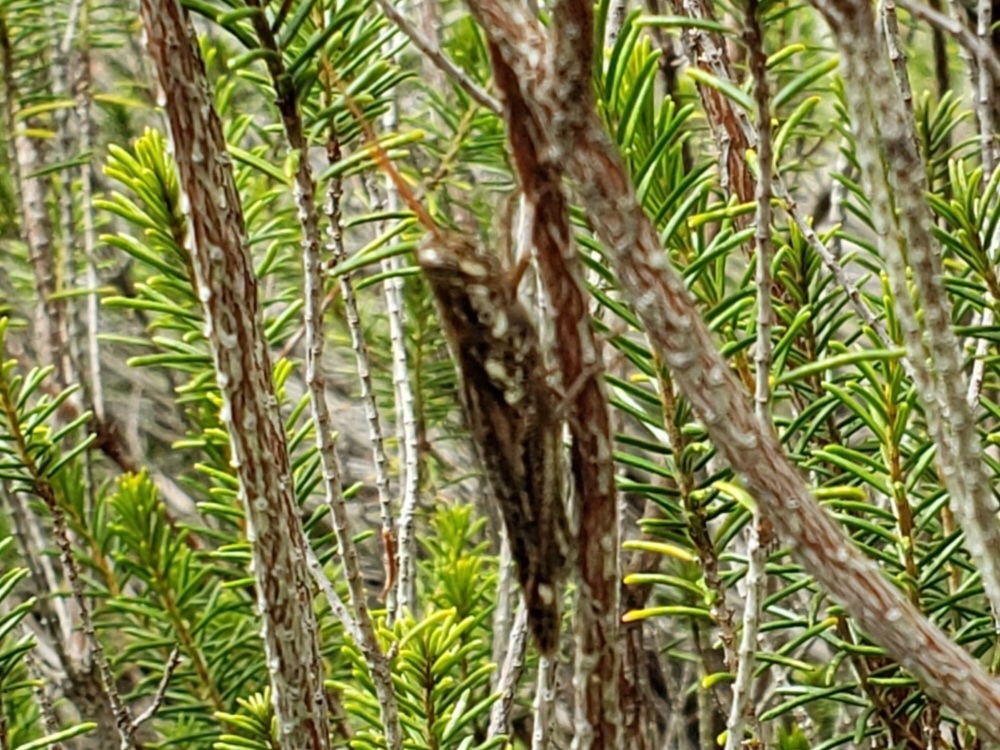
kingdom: Animalia
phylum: Arthropoda
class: Insecta
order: Orthoptera
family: Acrididae
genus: Schistocerca
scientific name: Schistocerca ceratiola
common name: Rosemary grasshopper
